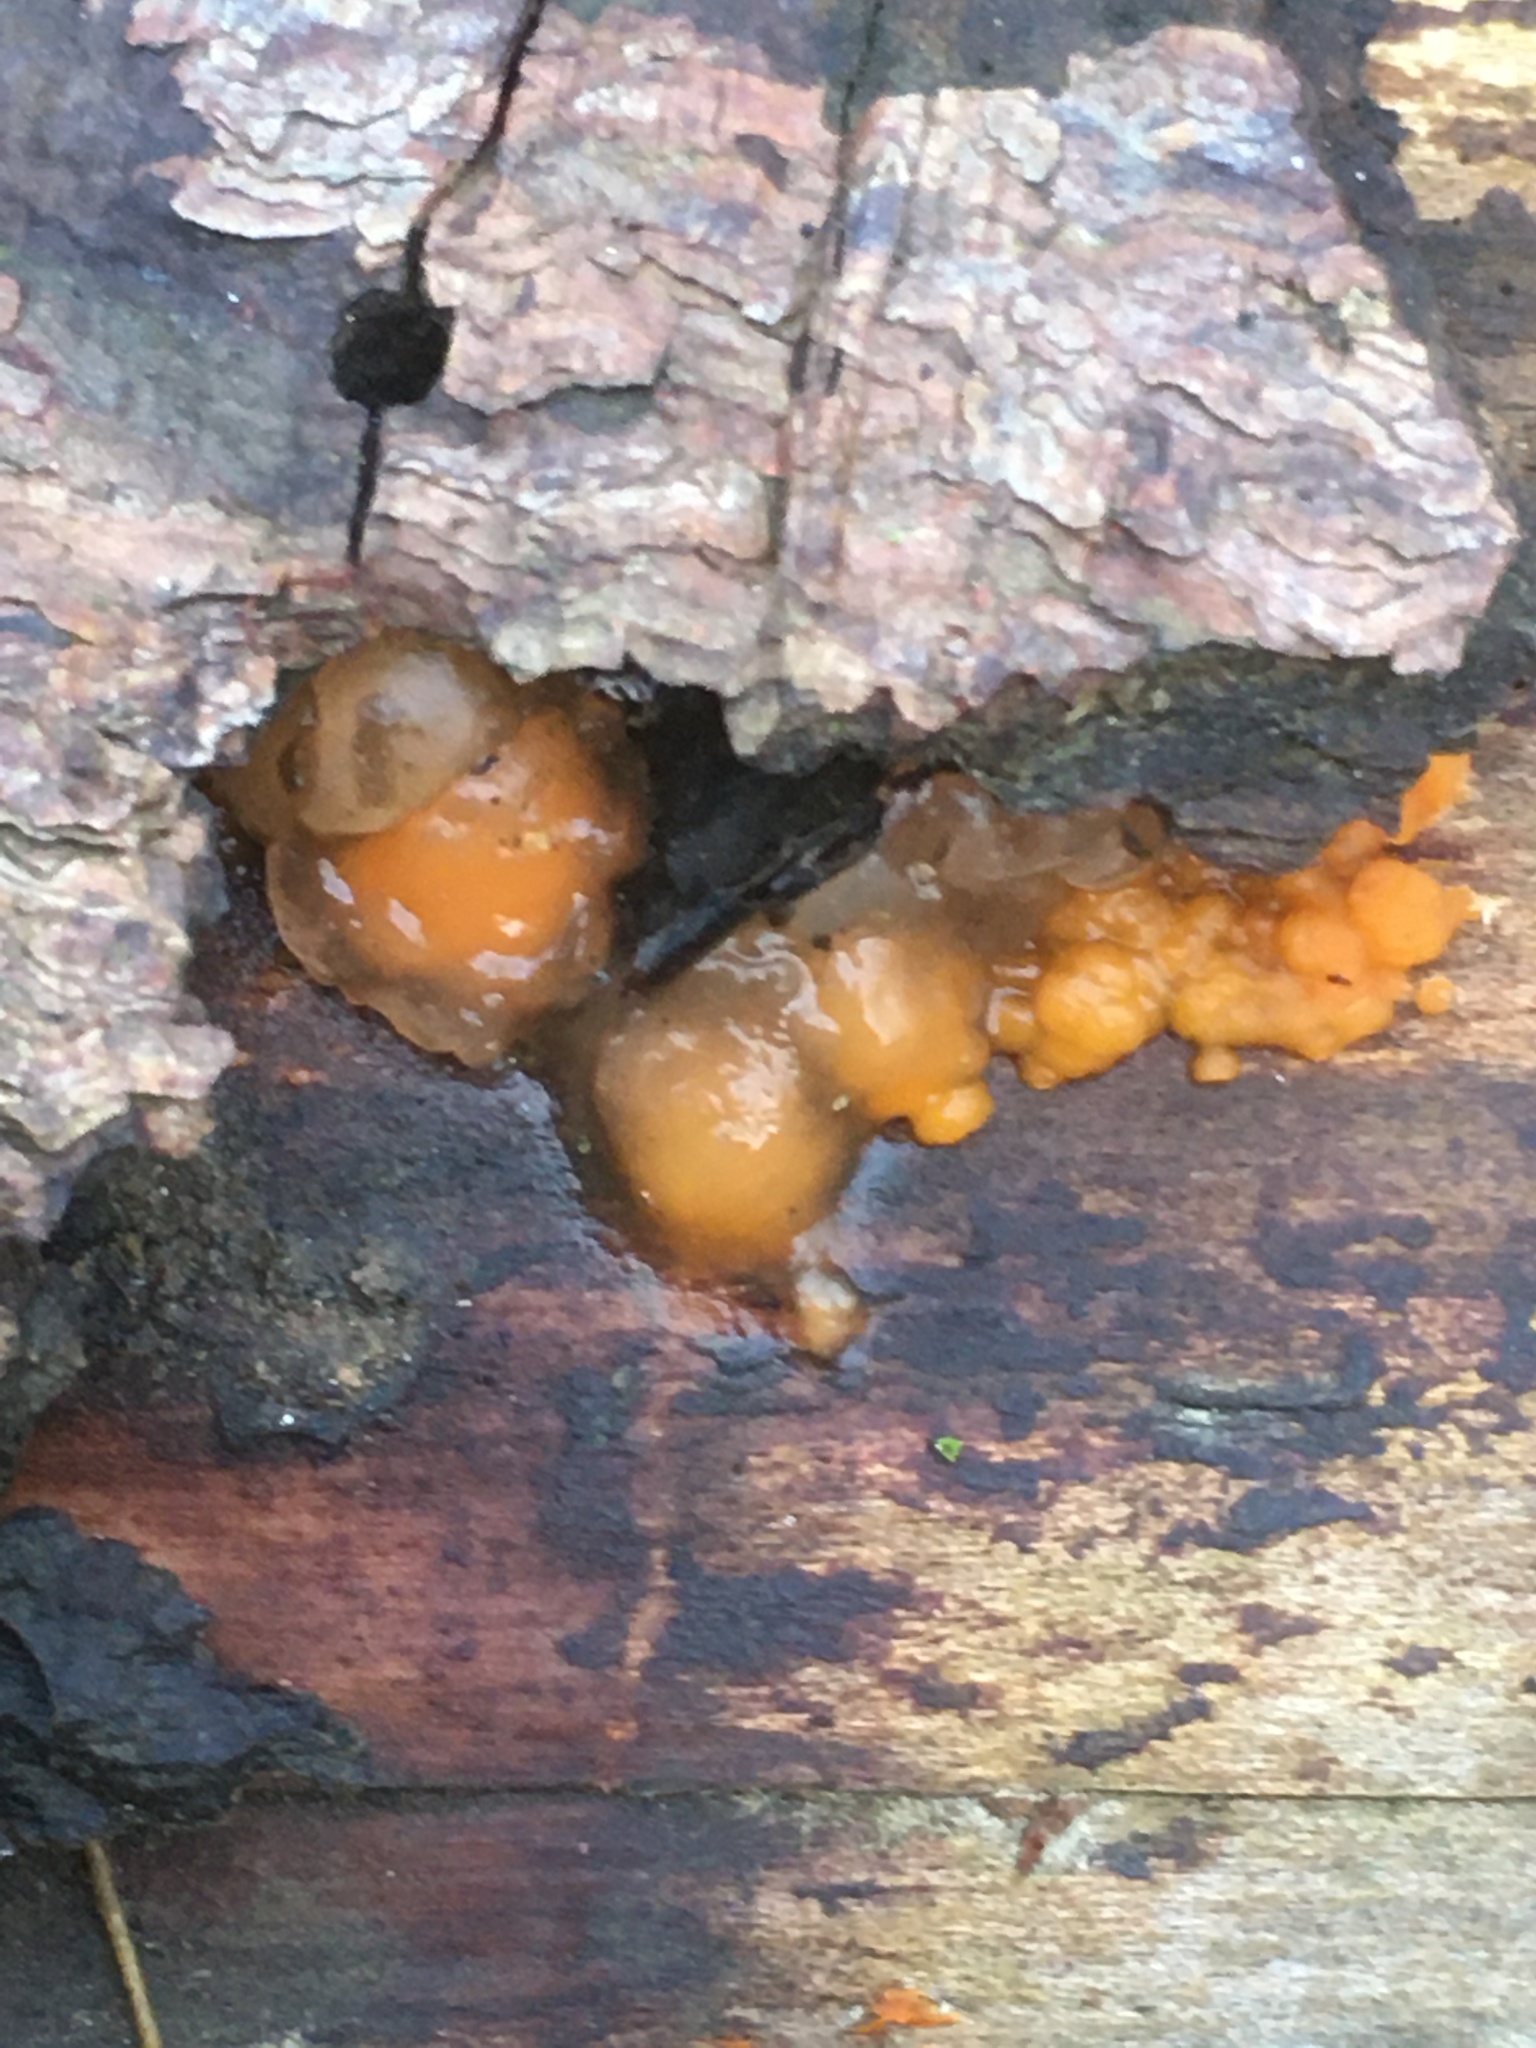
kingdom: Fungi
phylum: Basidiomycota
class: Dacrymycetes
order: Dacrymycetales
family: Dacrymycetaceae
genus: Dacrymyces
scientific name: Dacrymyces stillatus
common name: Common jelly spot
